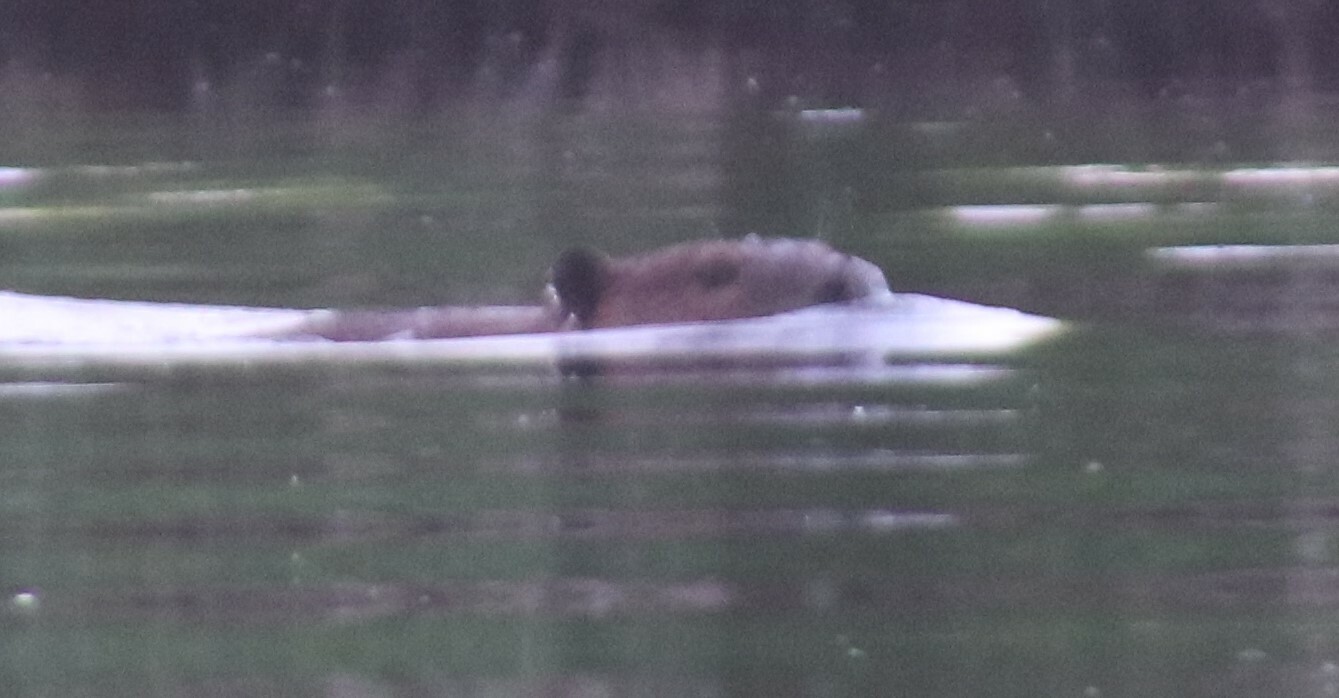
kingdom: Animalia
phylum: Chordata
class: Mammalia
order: Rodentia
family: Castoridae
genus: Castor
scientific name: Castor canadensis
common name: American beaver
